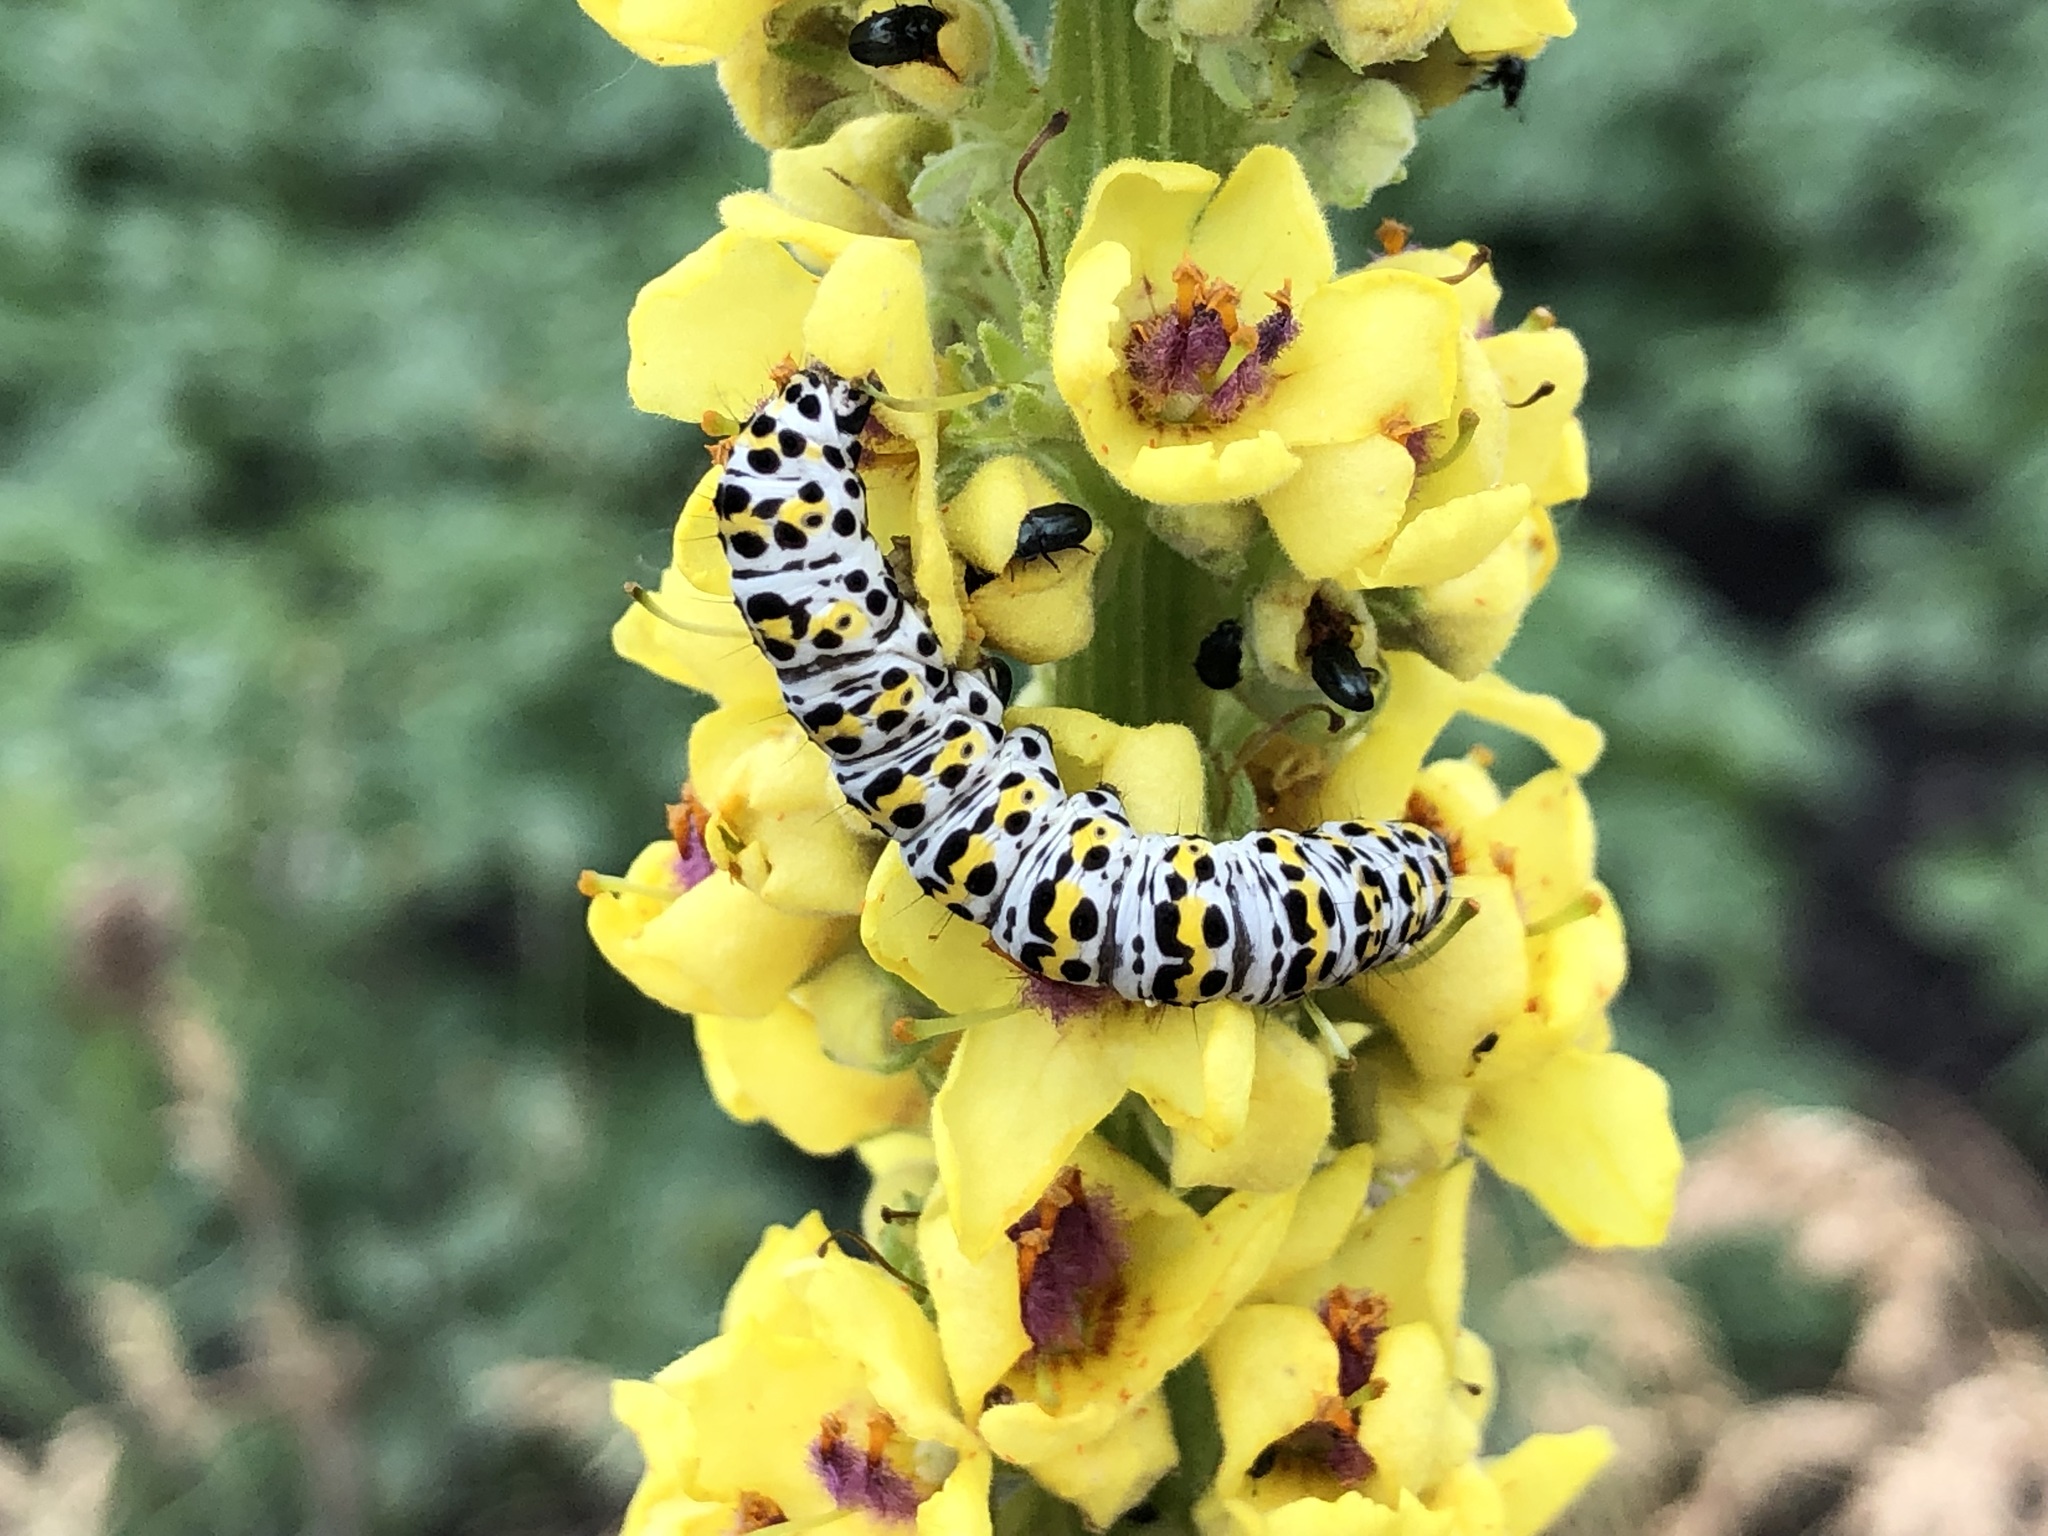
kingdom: Animalia
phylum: Arthropoda
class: Insecta
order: Lepidoptera
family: Noctuidae
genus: Cucullia
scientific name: Cucullia verbasci
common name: Mullein
